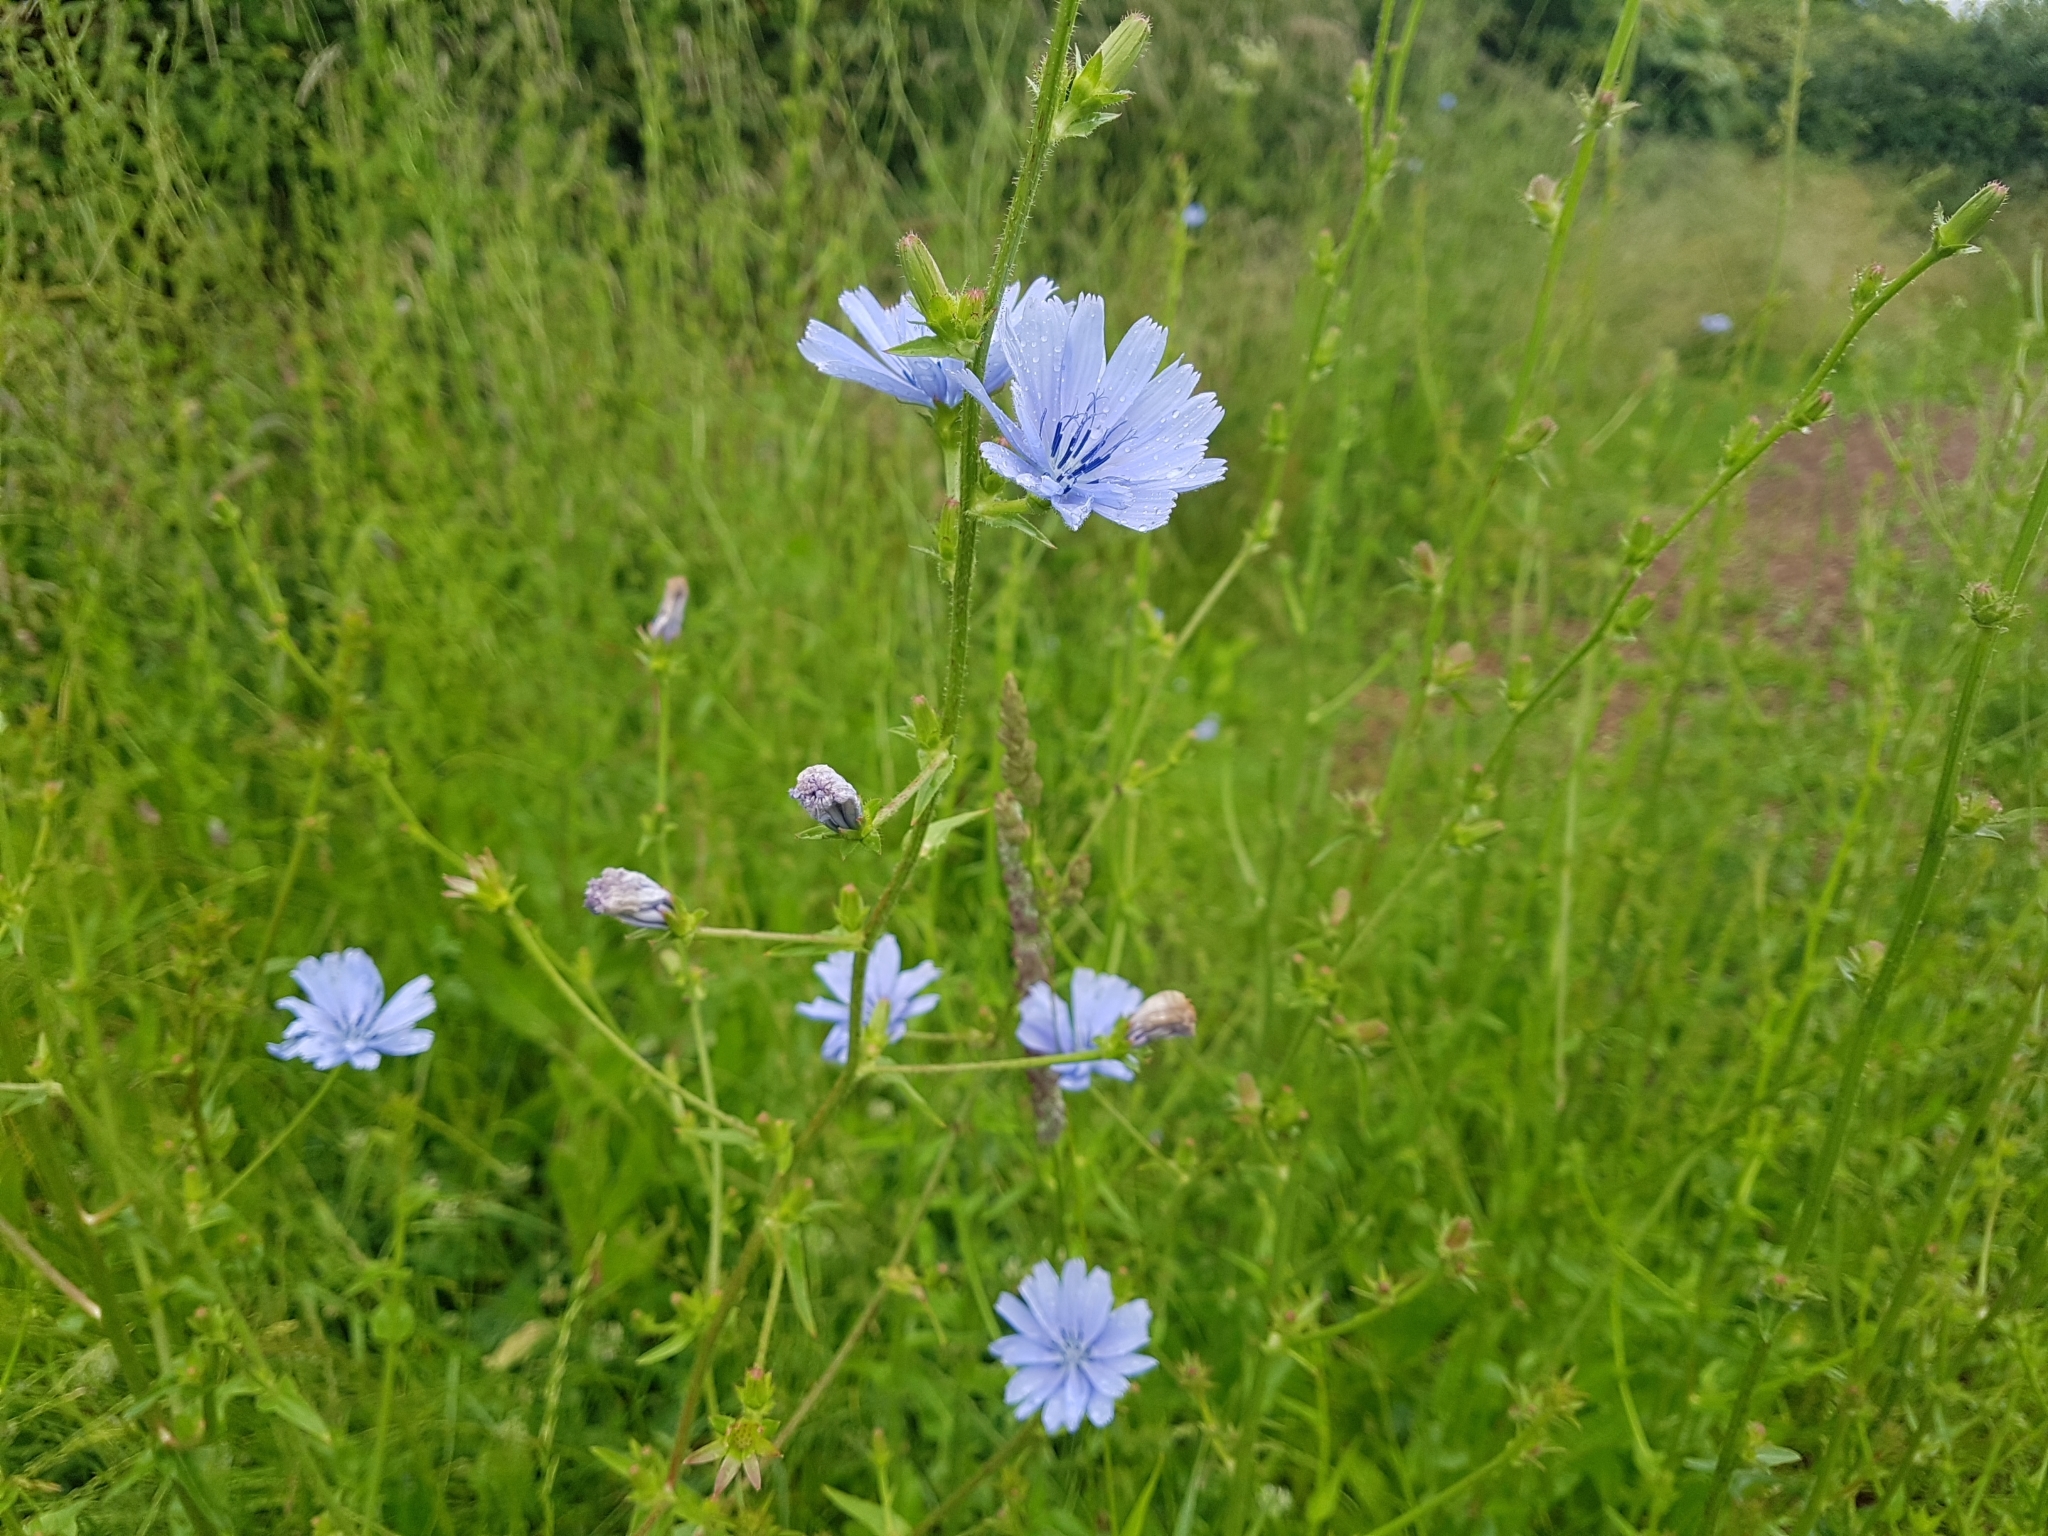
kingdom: Plantae
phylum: Tracheophyta
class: Magnoliopsida
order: Asterales
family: Asteraceae
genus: Cichorium
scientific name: Cichorium intybus
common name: Chicory
